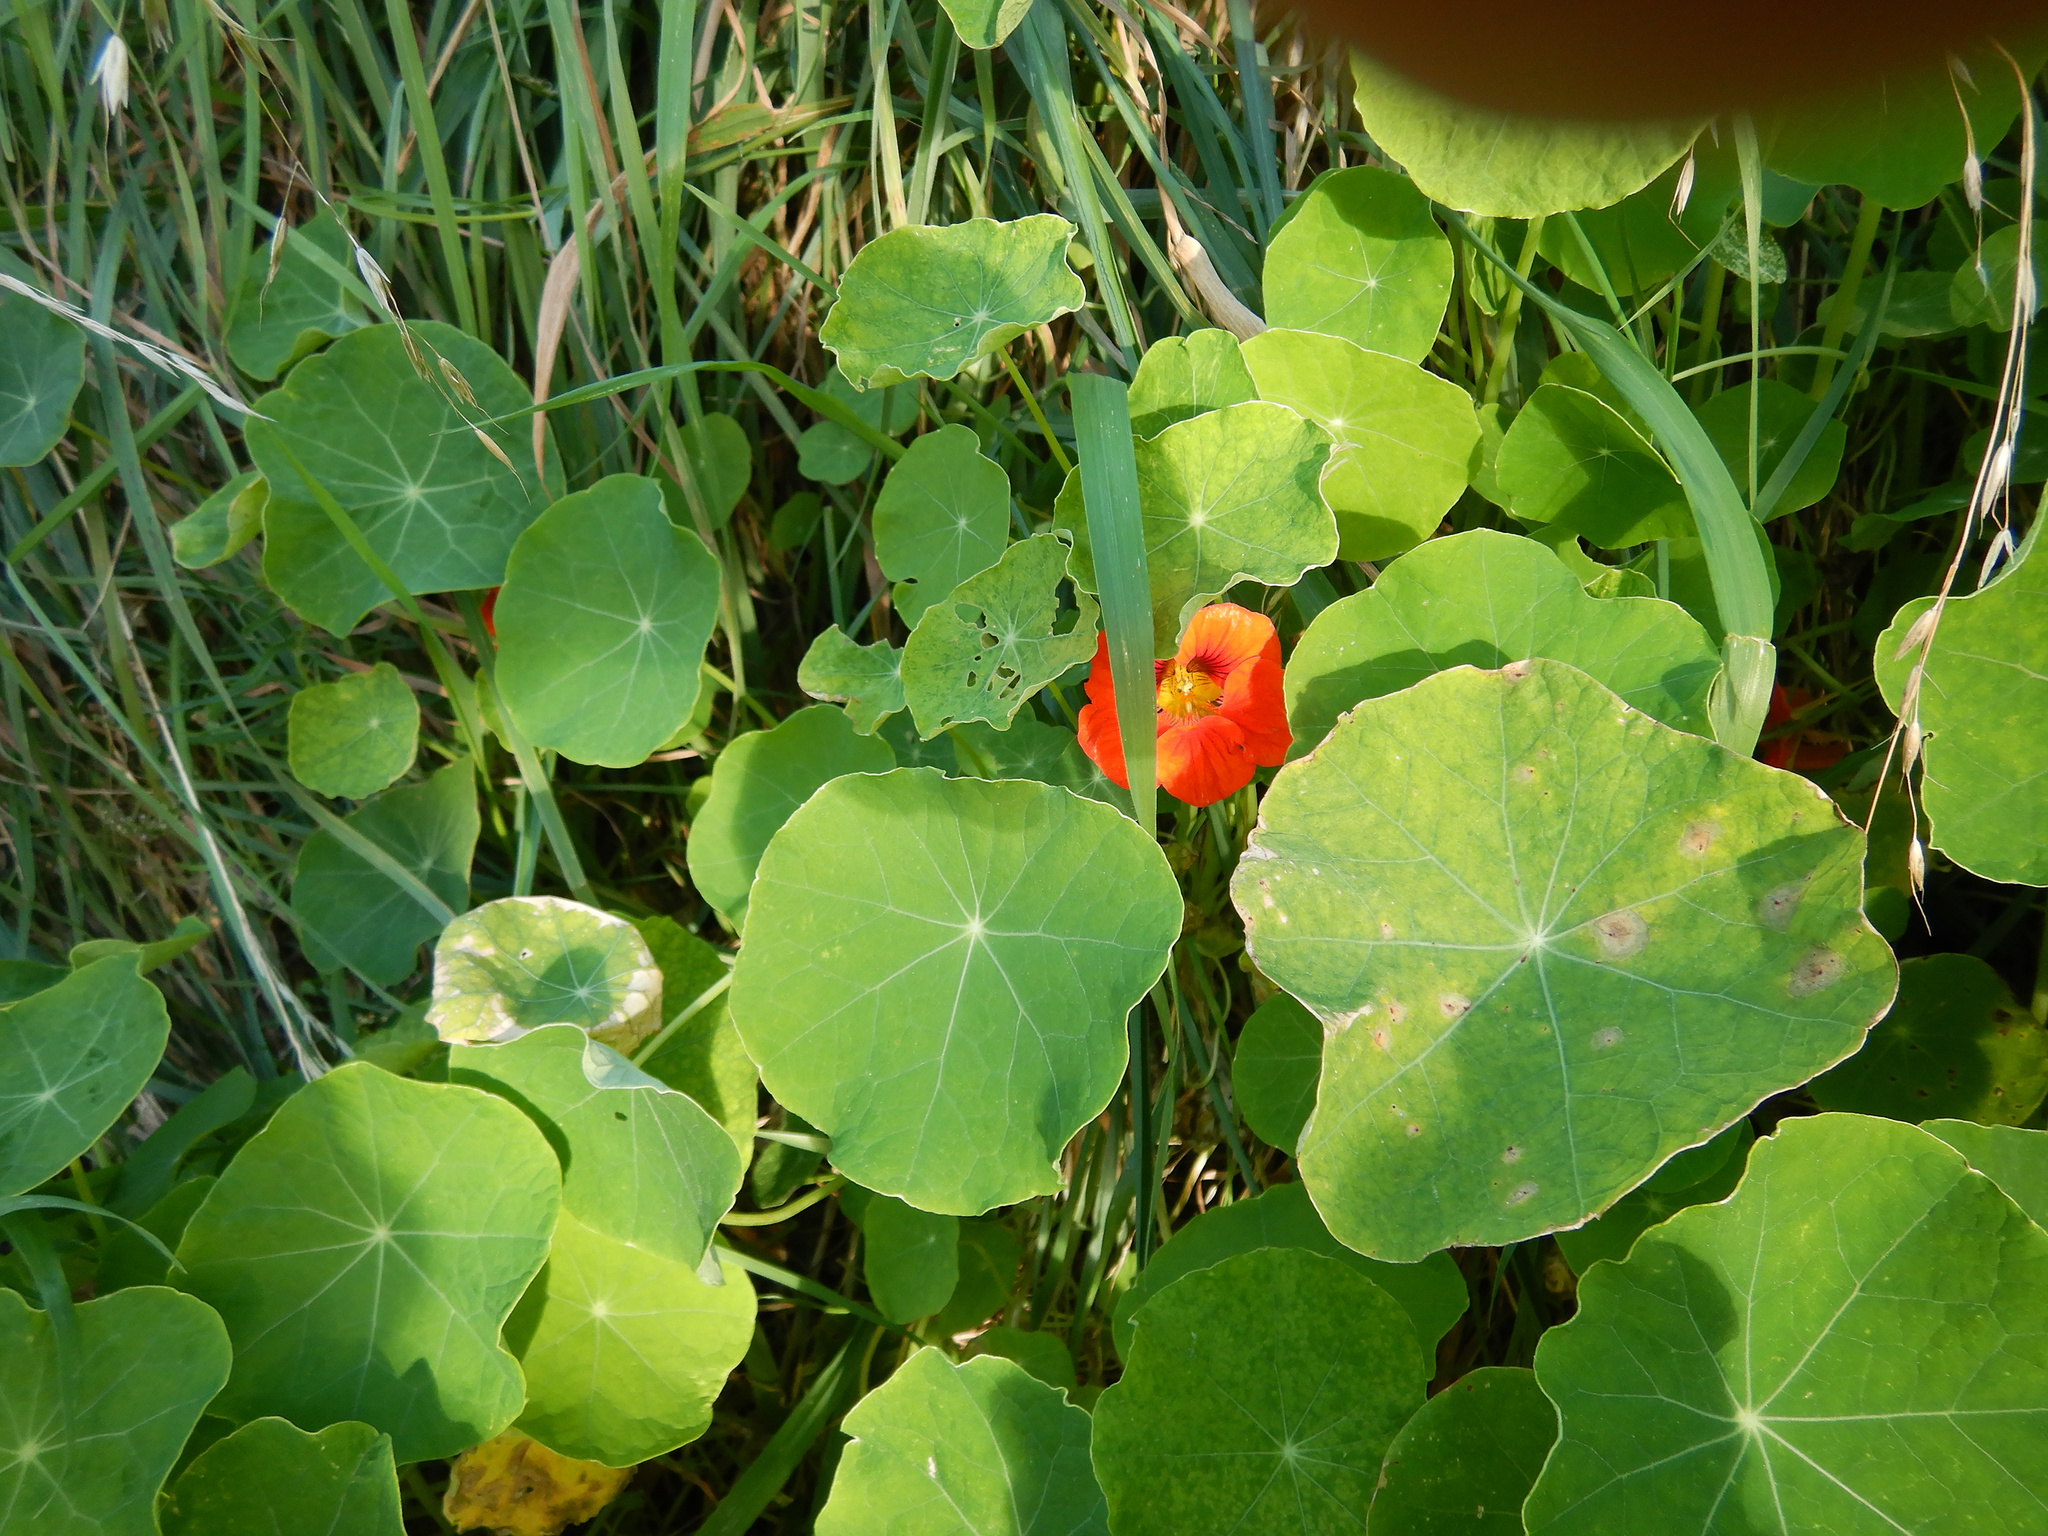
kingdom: Plantae
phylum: Tracheophyta
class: Magnoliopsida
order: Brassicales
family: Tropaeolaceae
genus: Tropaeolum
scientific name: Tropaeolum majus
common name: Nasturtium
